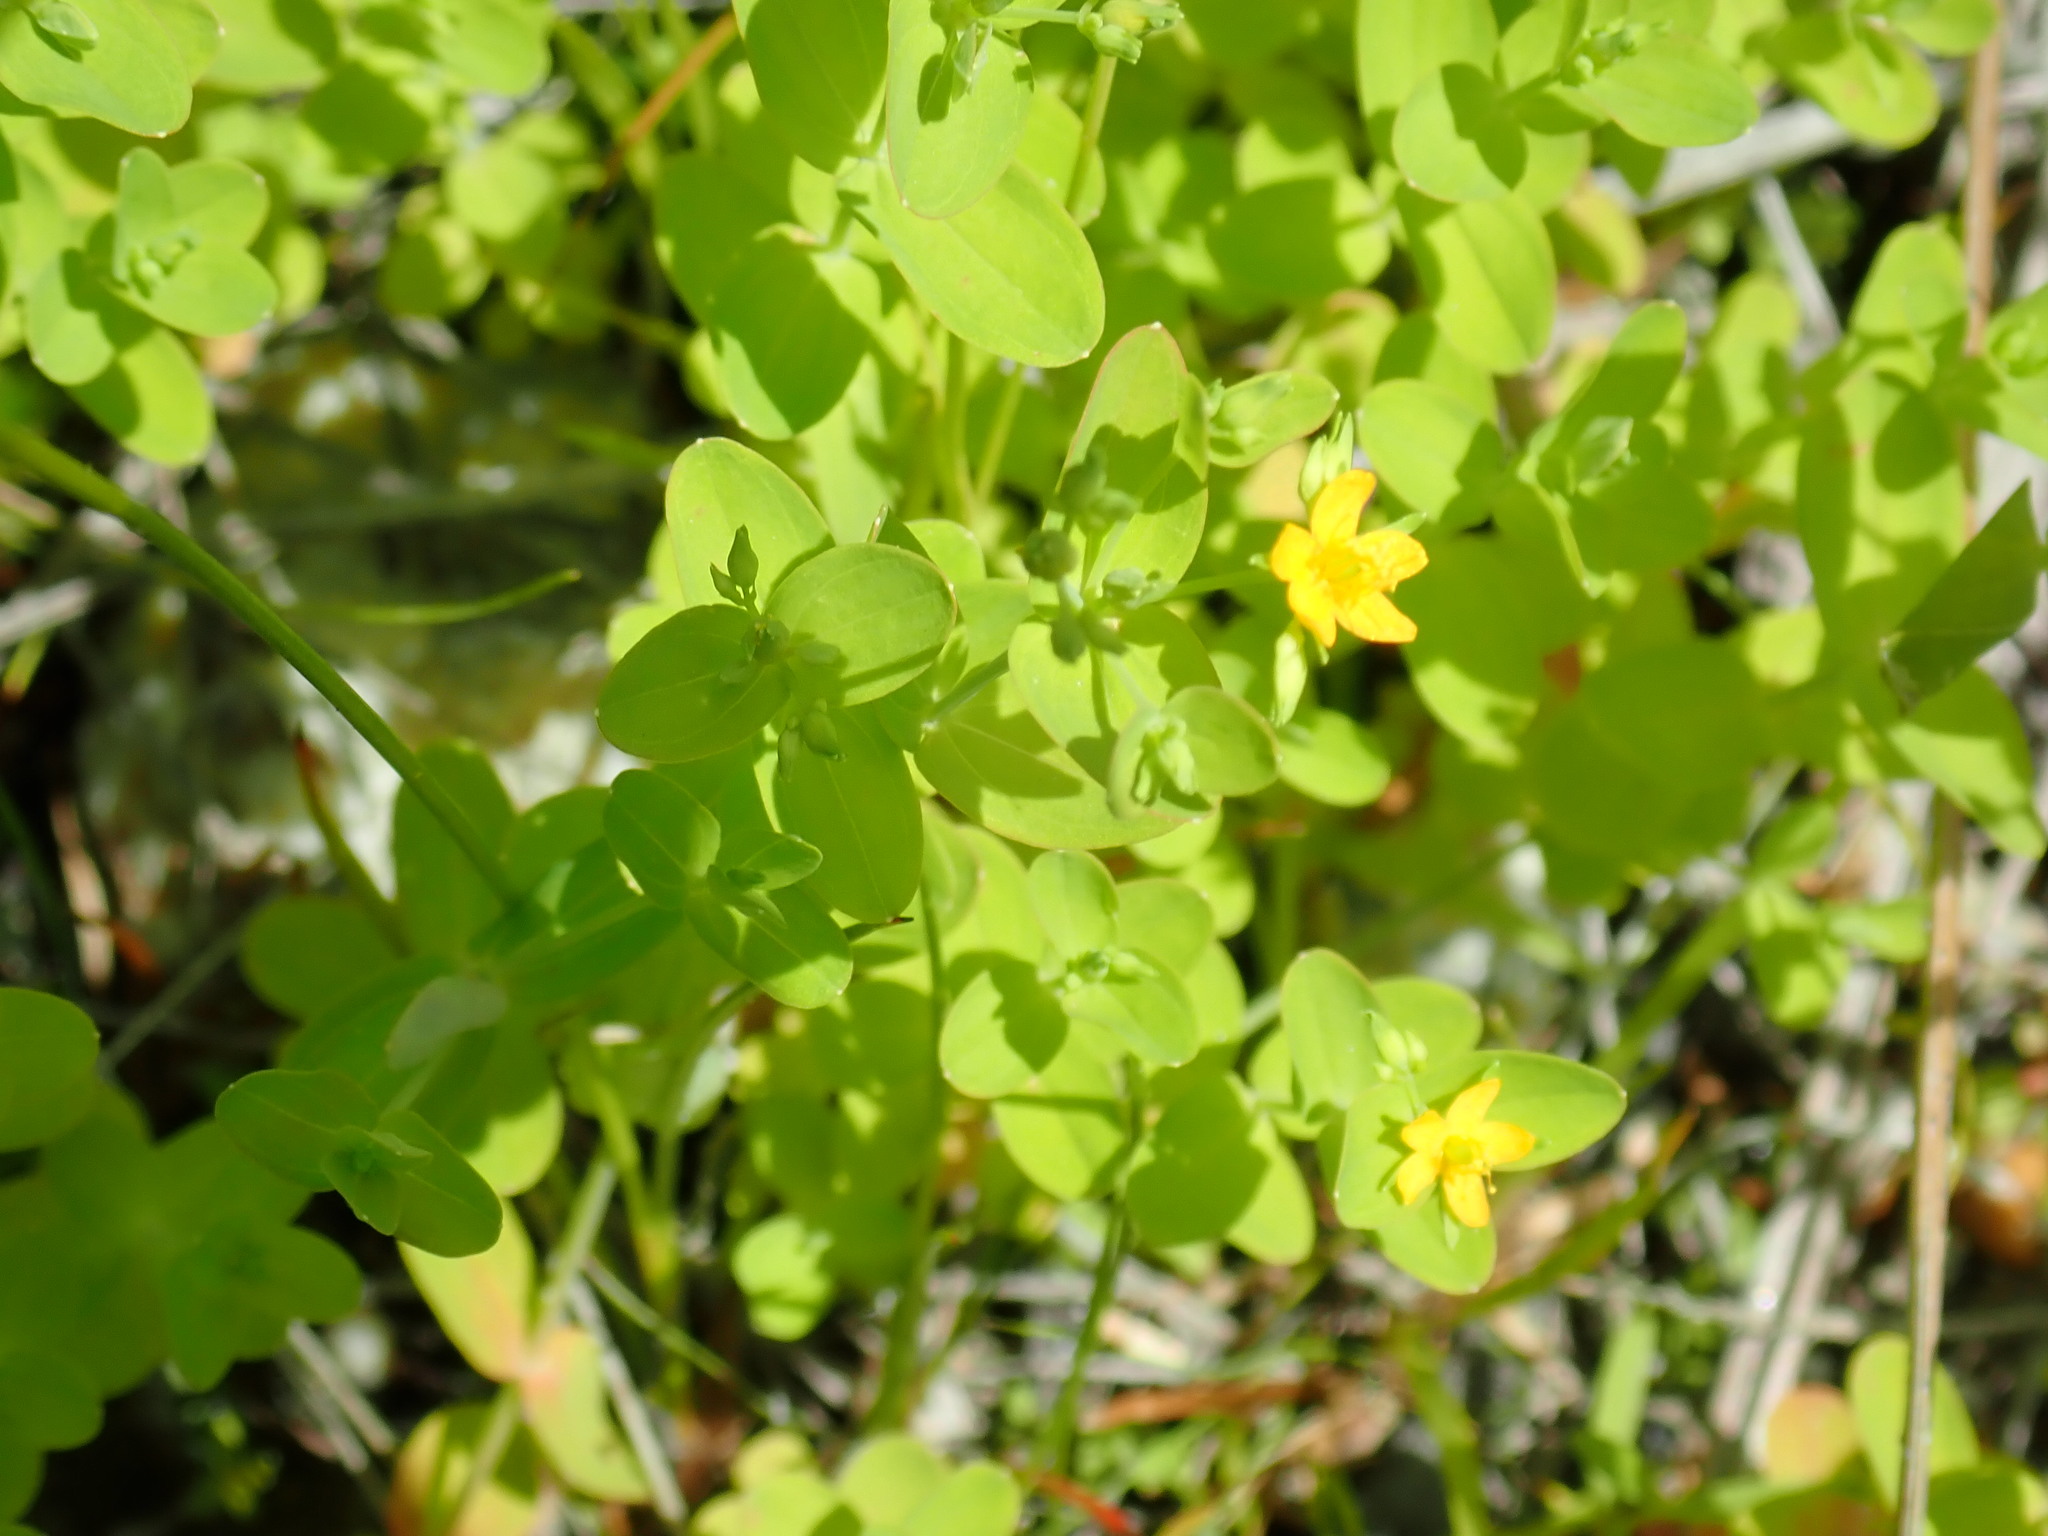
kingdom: Plantae
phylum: Tracheophyta
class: Magnoliopsida
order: Malpighiales
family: Hypericaceae
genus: Hypericum
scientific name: Hypericum mutilum
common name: Dwarf st. john's-wort
